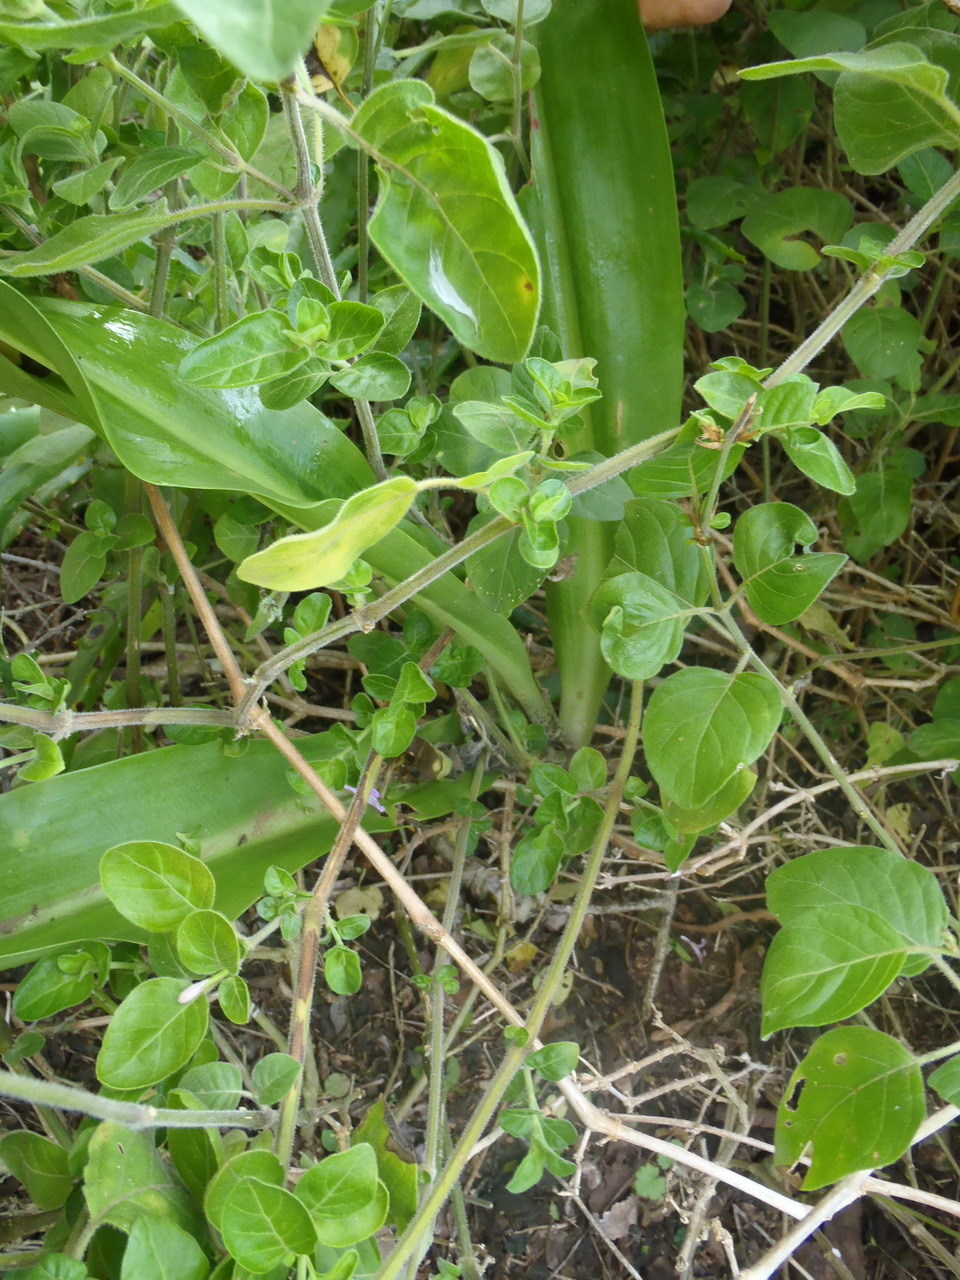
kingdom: Plantae
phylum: Tracheophyta
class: Liliopsida
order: Asparagales
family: Amaryllidaceae
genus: Scadoxus
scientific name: Scadoxus puniceus
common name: Royal-paintbrush
